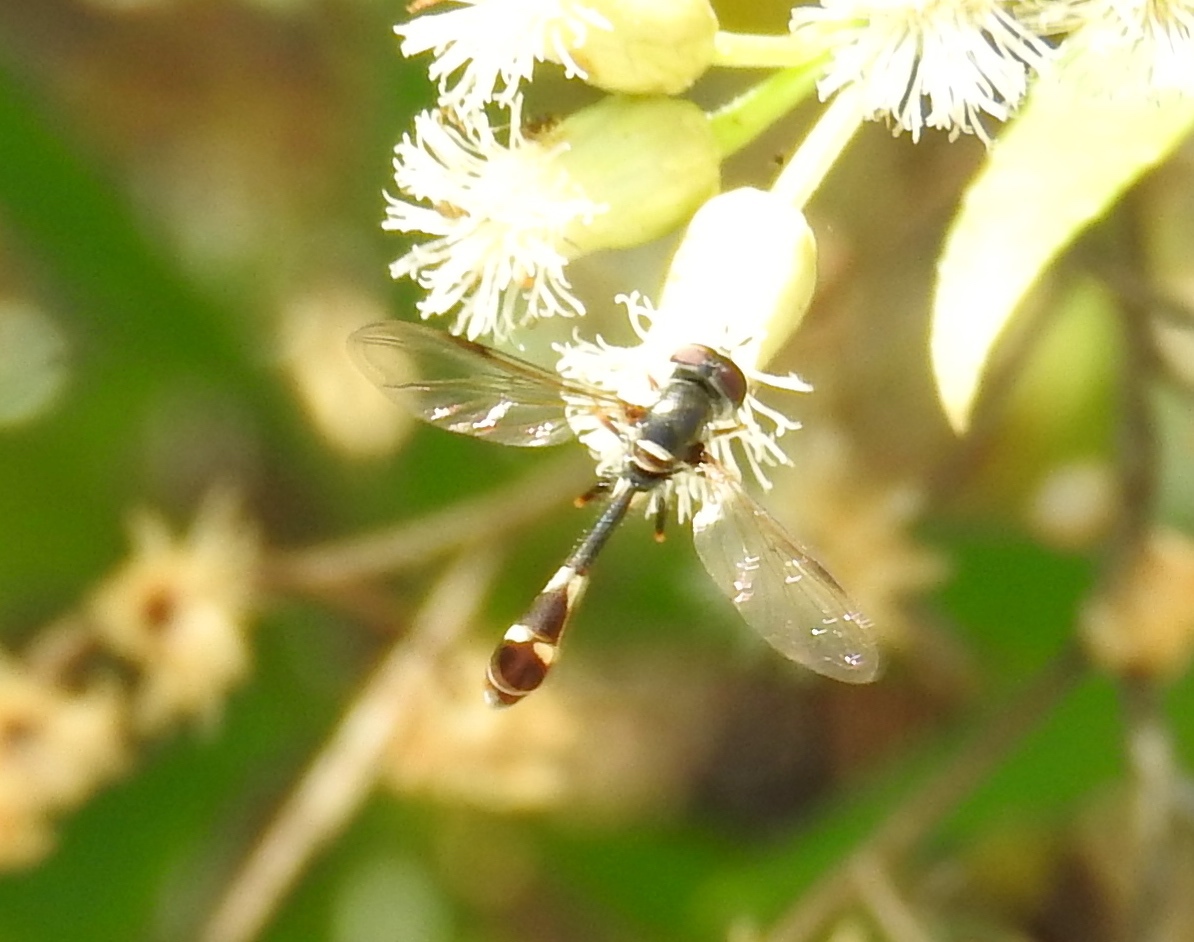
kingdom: Animalia
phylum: Arthropoda
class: Insecta
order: Diptera
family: Syrphidae
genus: Dioprosopa
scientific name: Dioprosopa
